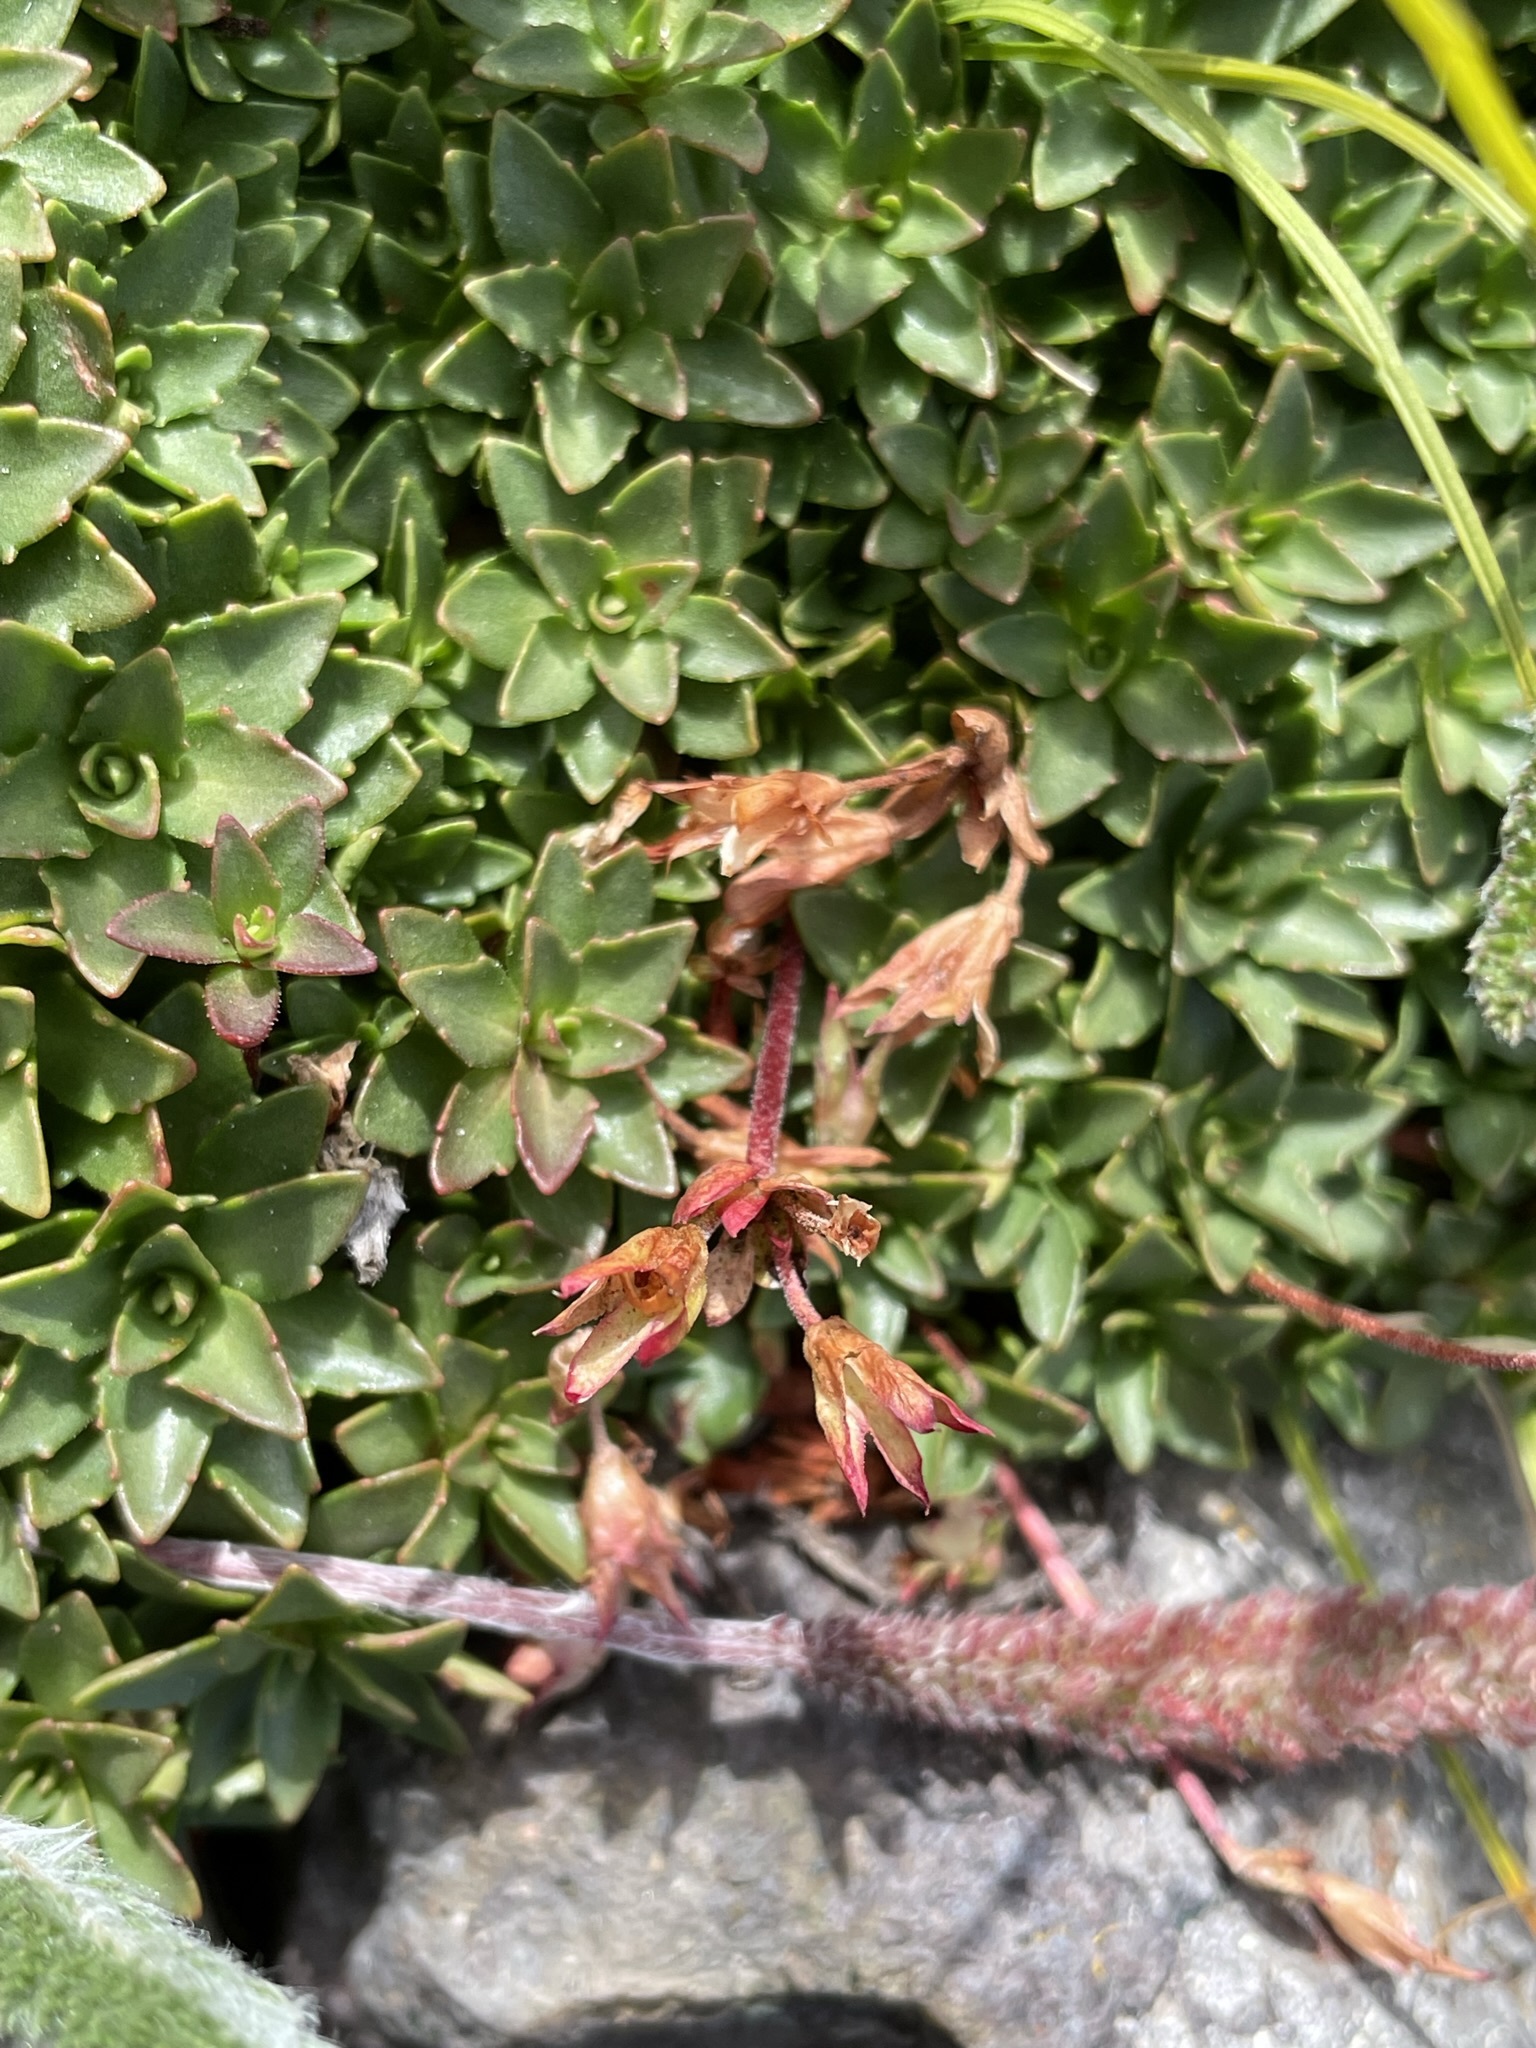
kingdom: Plantae
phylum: Tracheophyta
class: Magnoliopsida
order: Ericales
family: Primulaceae
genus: Androsace
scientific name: Androsace laevigata
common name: Cliff dwarf-primrose
